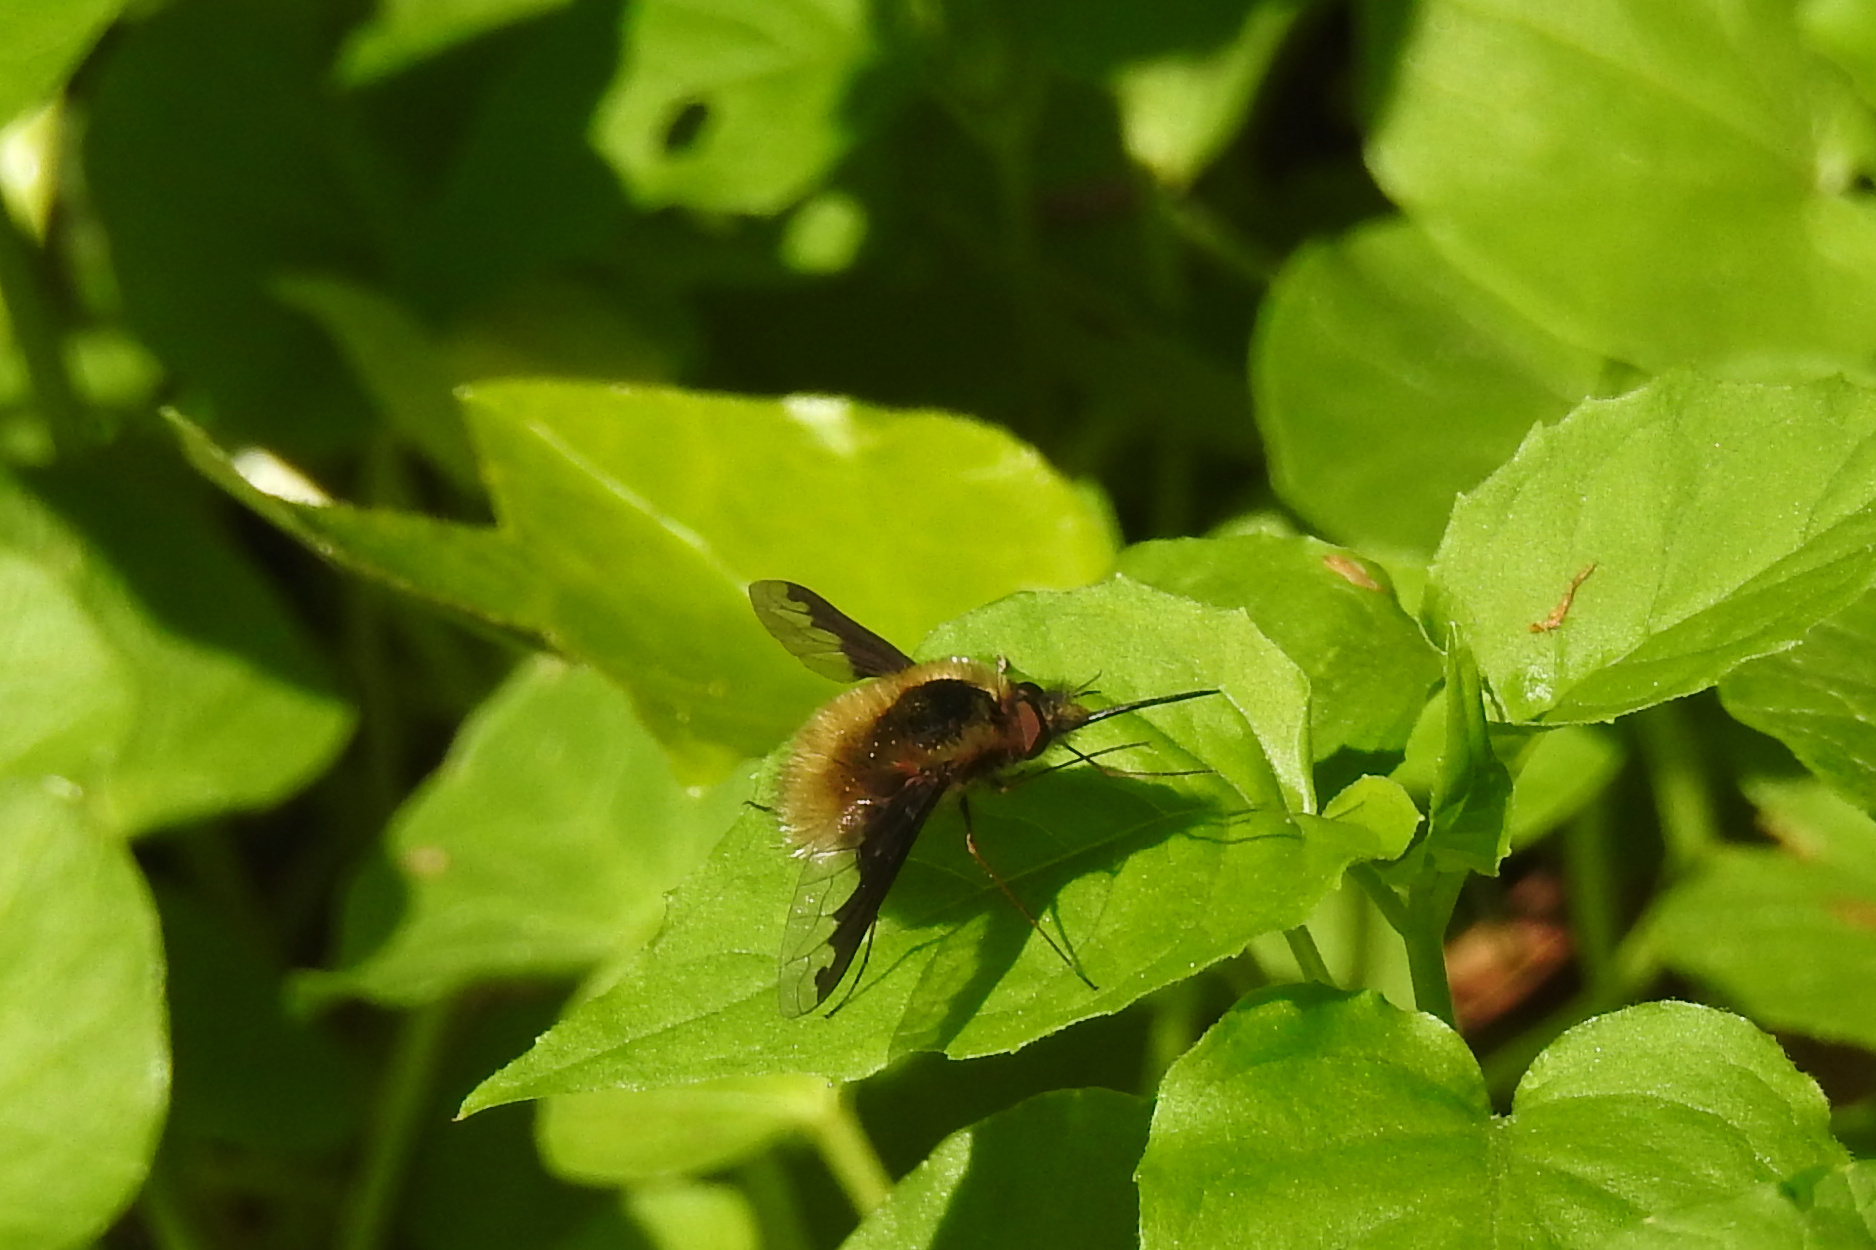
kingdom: Animalia
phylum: Arthropoda
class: Insecta
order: Diptera
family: Bombyliidae
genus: Bombylius
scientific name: Bombylius major
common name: Bee fly
